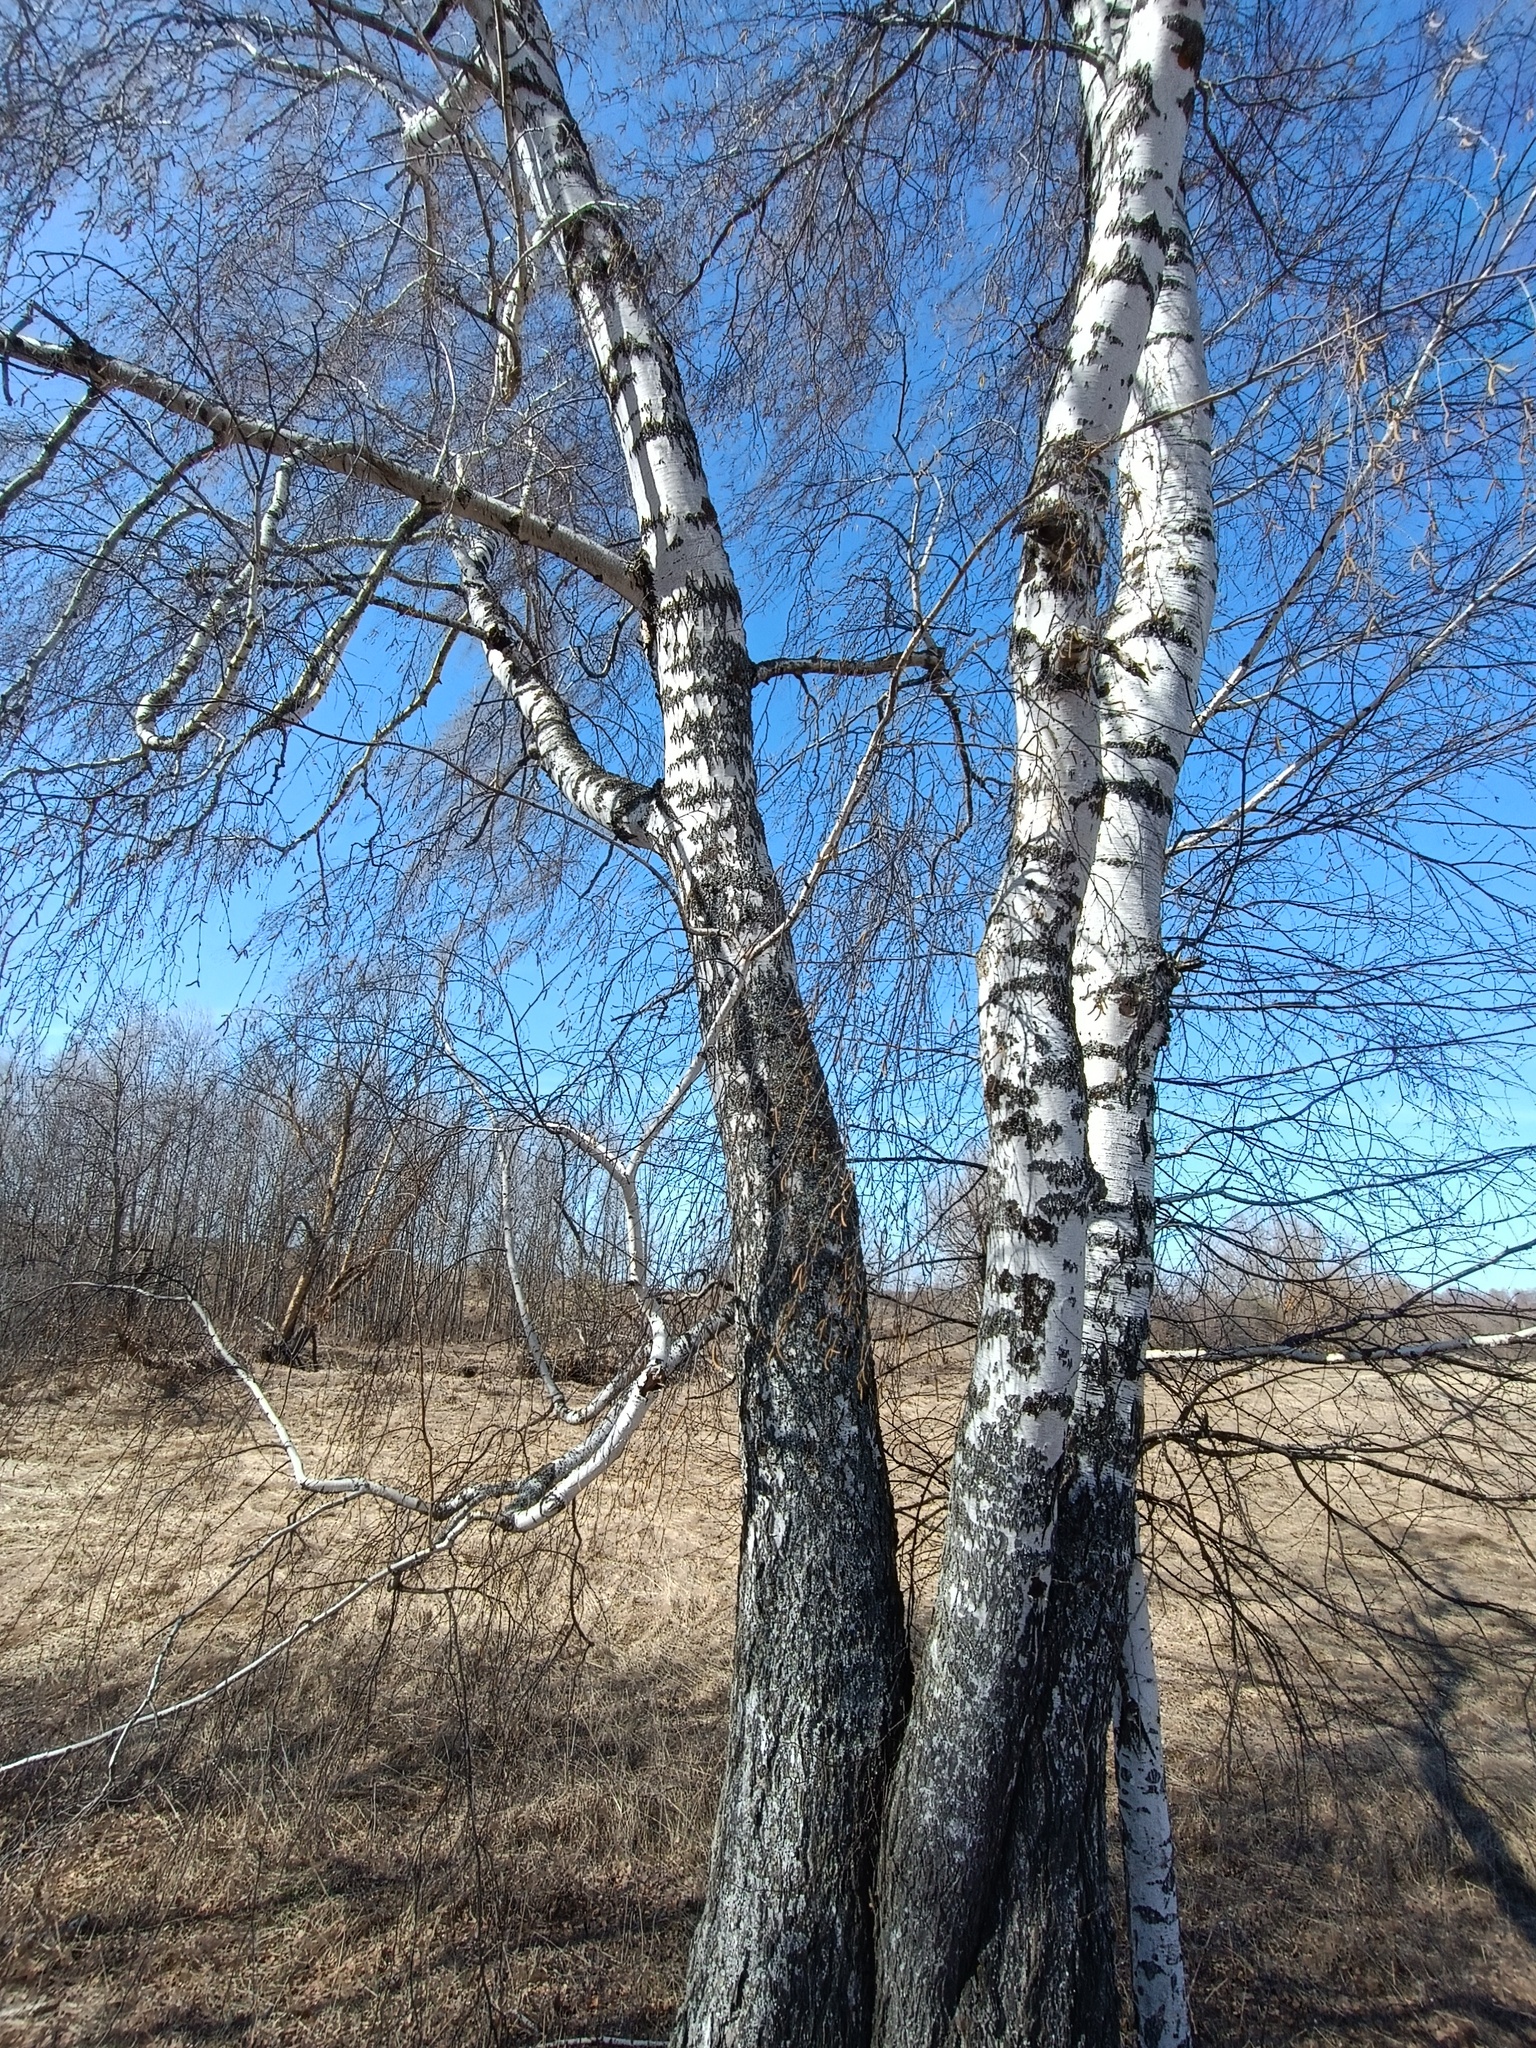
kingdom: Plantae
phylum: Tracheophyta
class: Magnoliopsida
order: Fagales
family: Betulaceae
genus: Betula
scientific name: Betula pendula
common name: Silver birch
